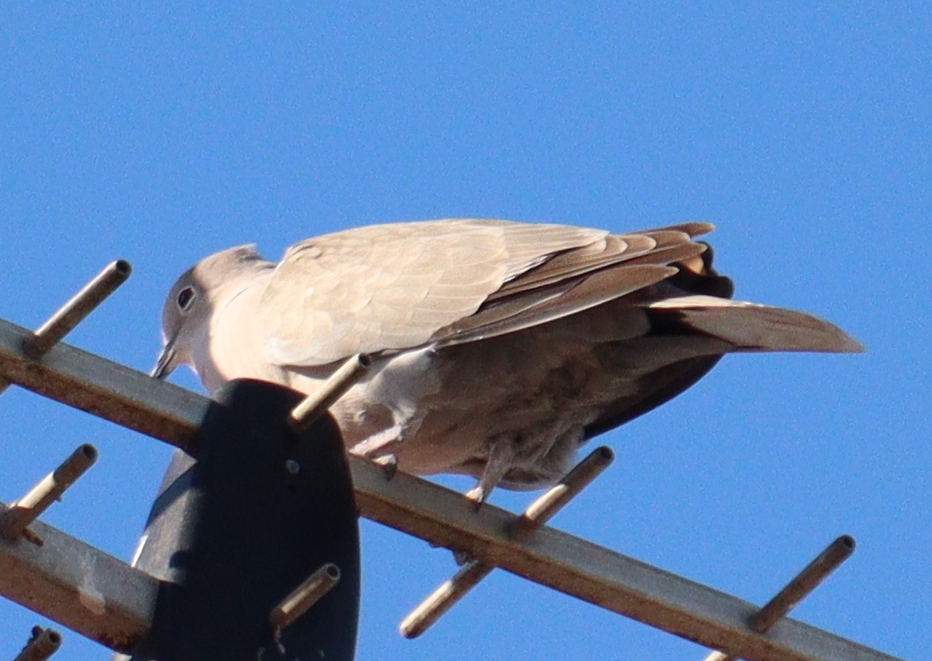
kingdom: Animalia
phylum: Chordata
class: Aves
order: Columbiformes
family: Columbidae
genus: Streptopelia
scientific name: Streptopelia decaocto
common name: Eurasian collared dove
